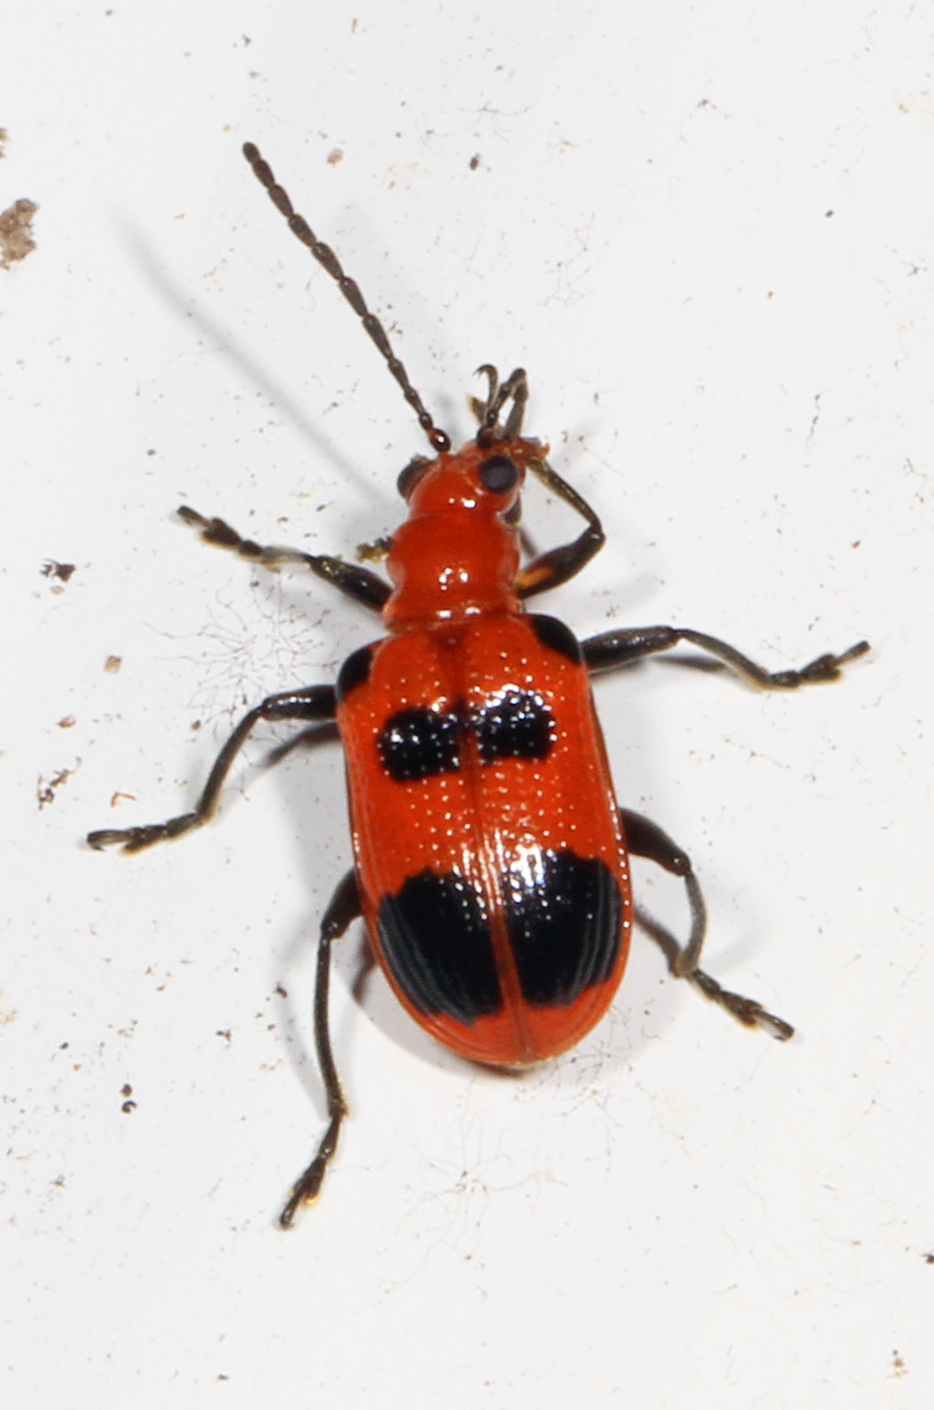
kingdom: Animalia
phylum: Arthropoda
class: Insecta
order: Coleoptera
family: Chrysomelidae
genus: Neolema
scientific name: Neolema sexpunctata
